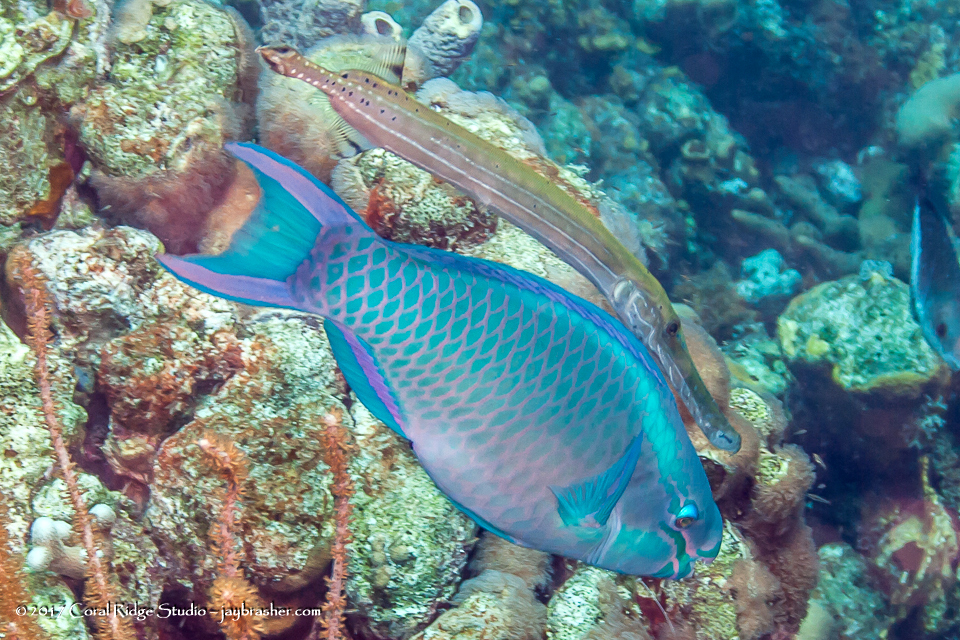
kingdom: Animalia
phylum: Chordata
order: Syngnathiformes
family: Aulostomidae
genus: Aulostomus
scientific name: Aulostomus maculatus
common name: West atlantic trumpetfish
